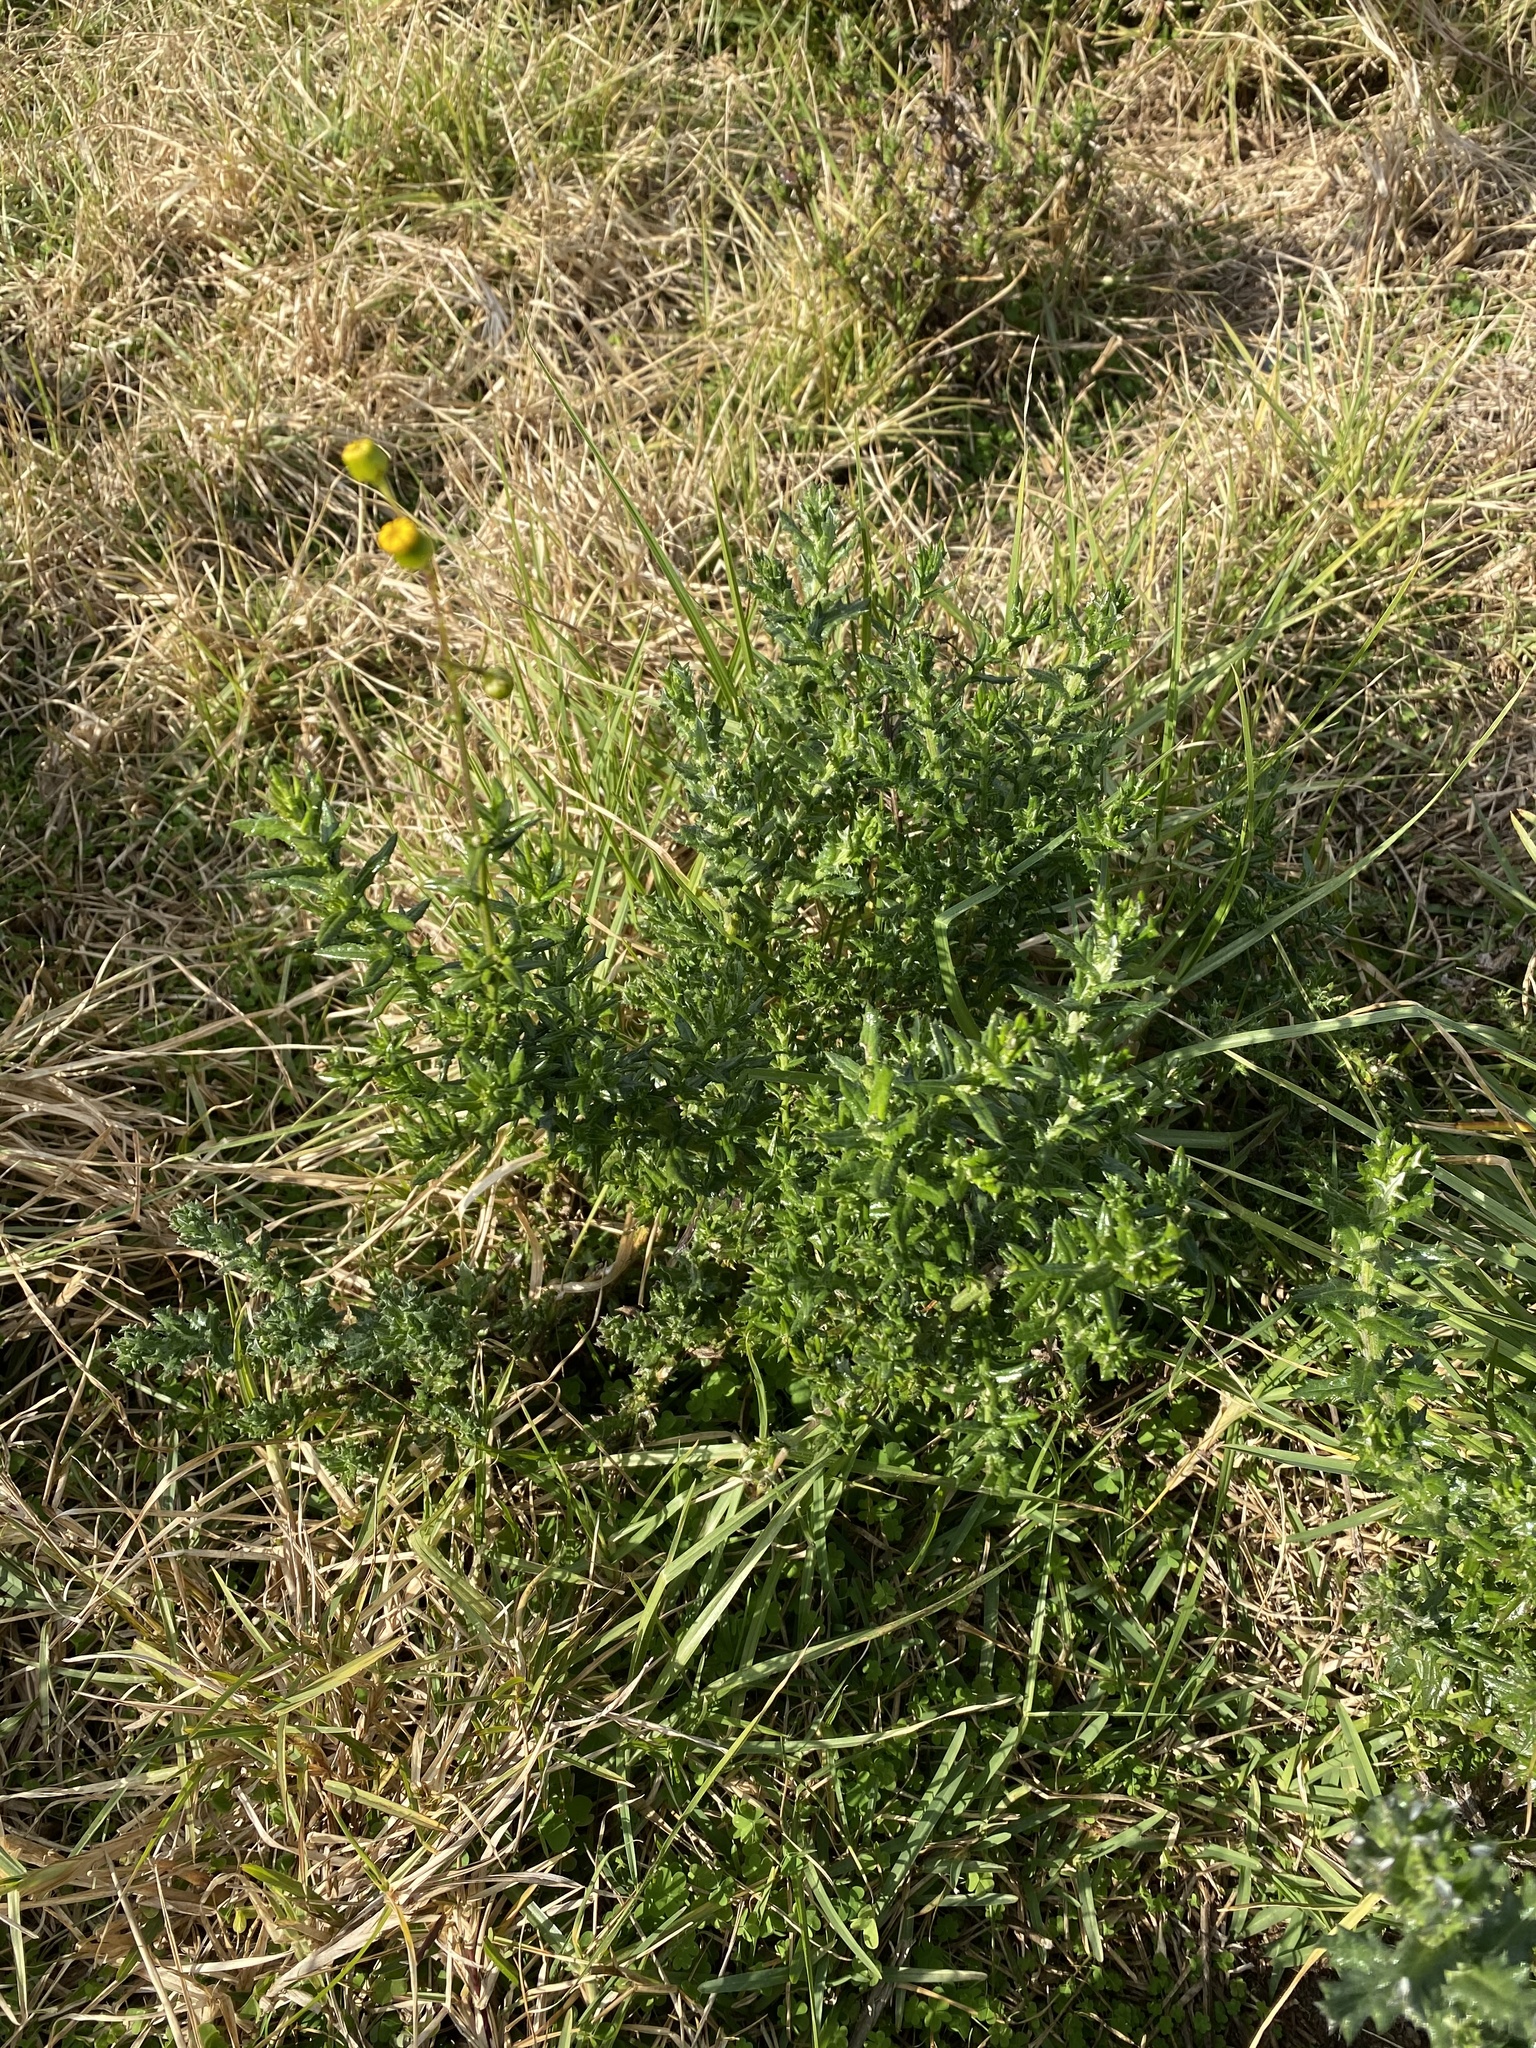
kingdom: Plantae
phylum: Tracheophyta
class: Magnoliopsida
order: Asterales
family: Asteraceae
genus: Senecio
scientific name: Senecio ilicifolius
